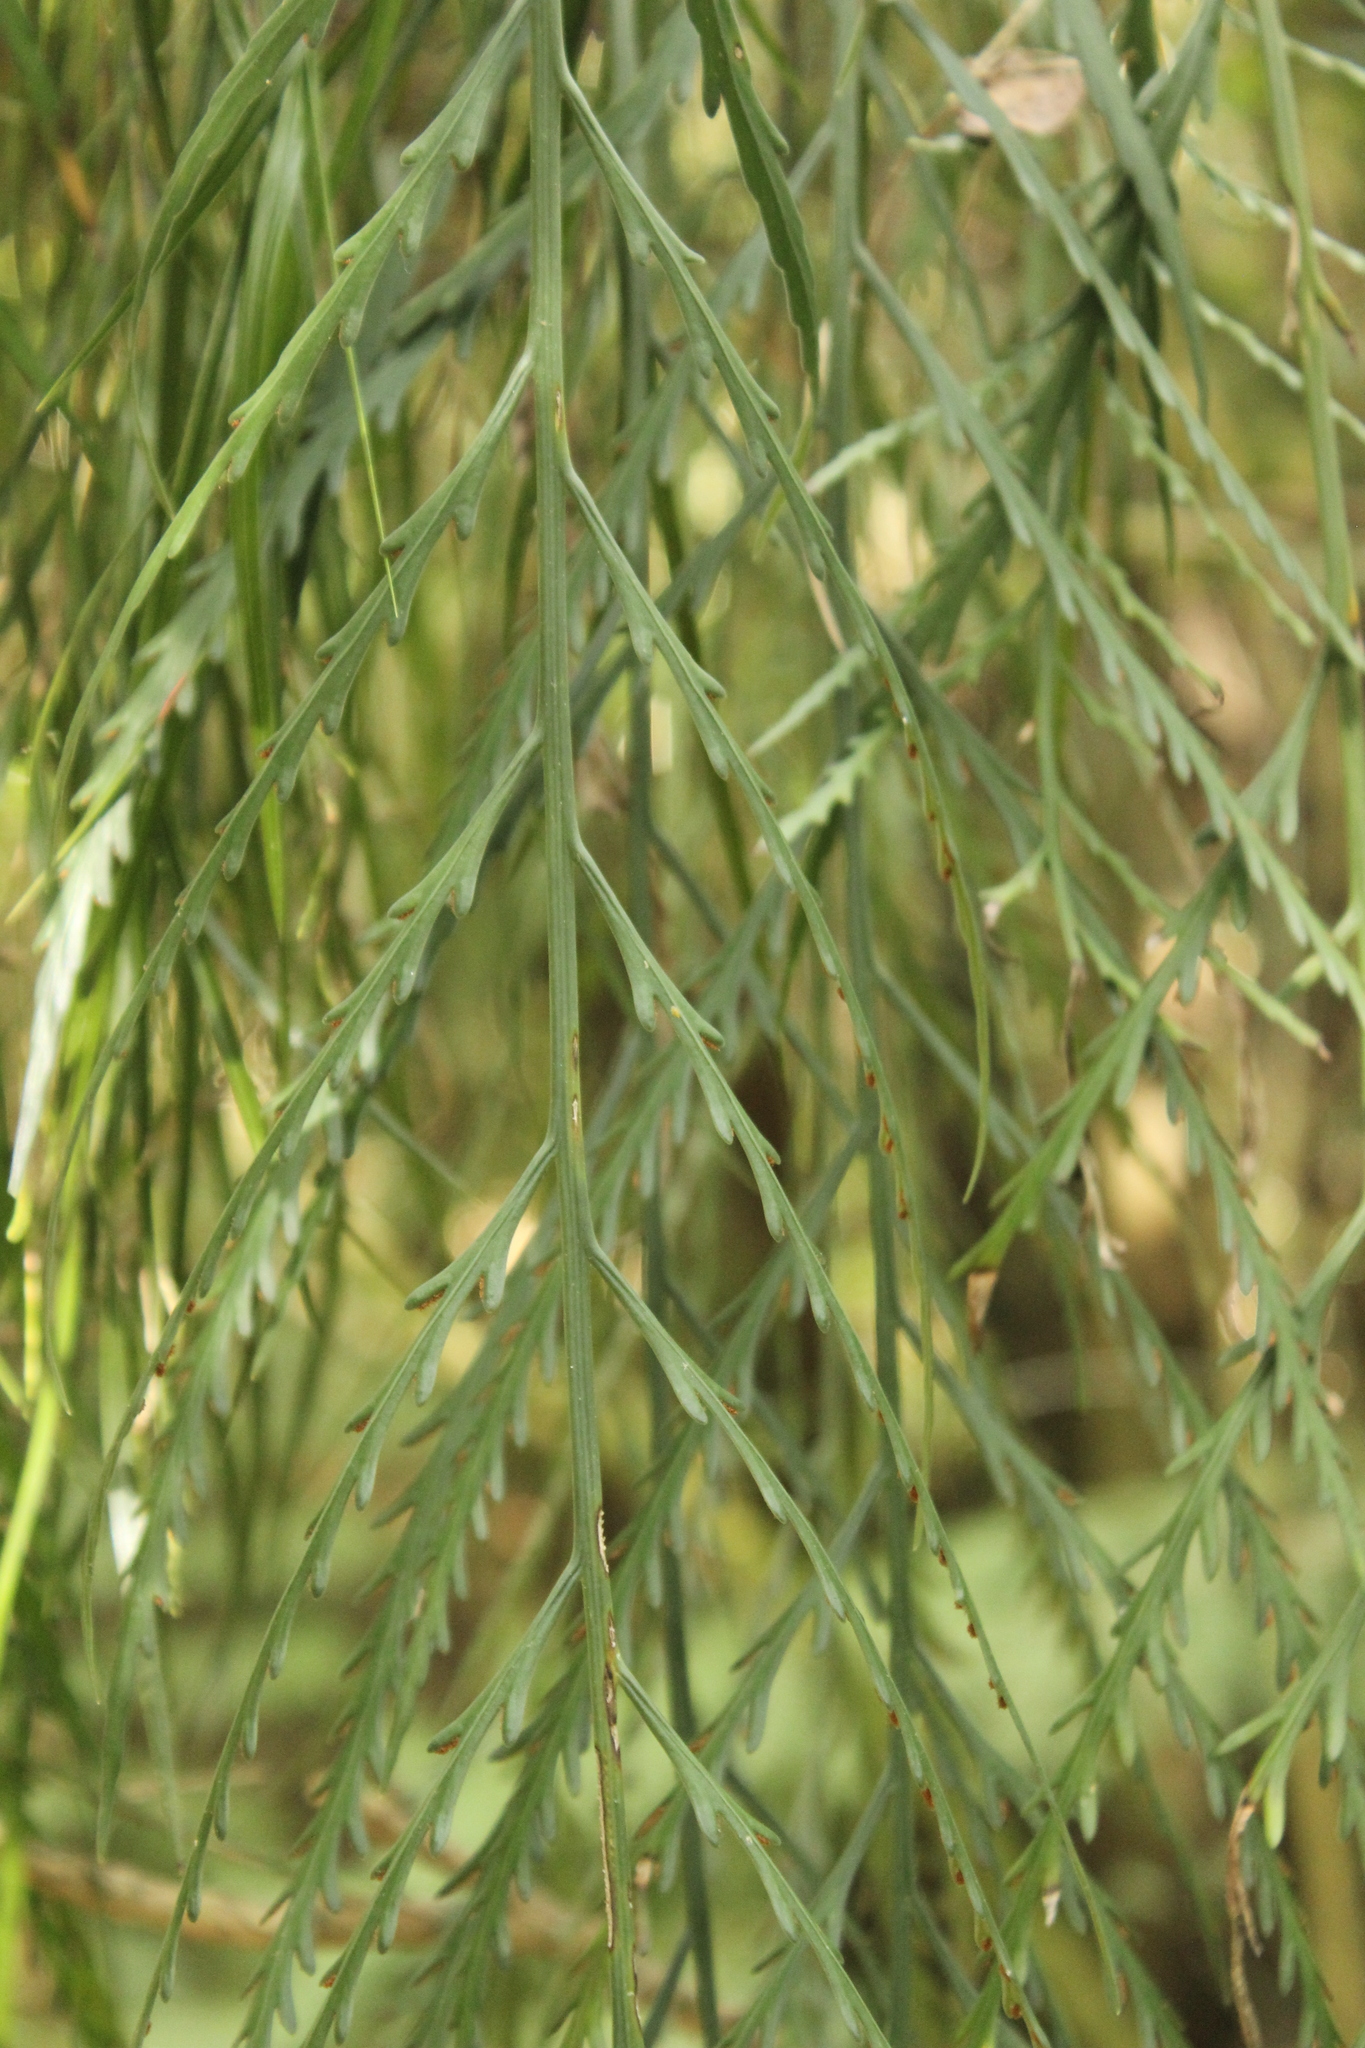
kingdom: Plantae
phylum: Tracheophyta
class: Polypodiopsida
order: Polypodiales
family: Aspleniaceae
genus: Asplenium
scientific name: Asplenium flaccidum
